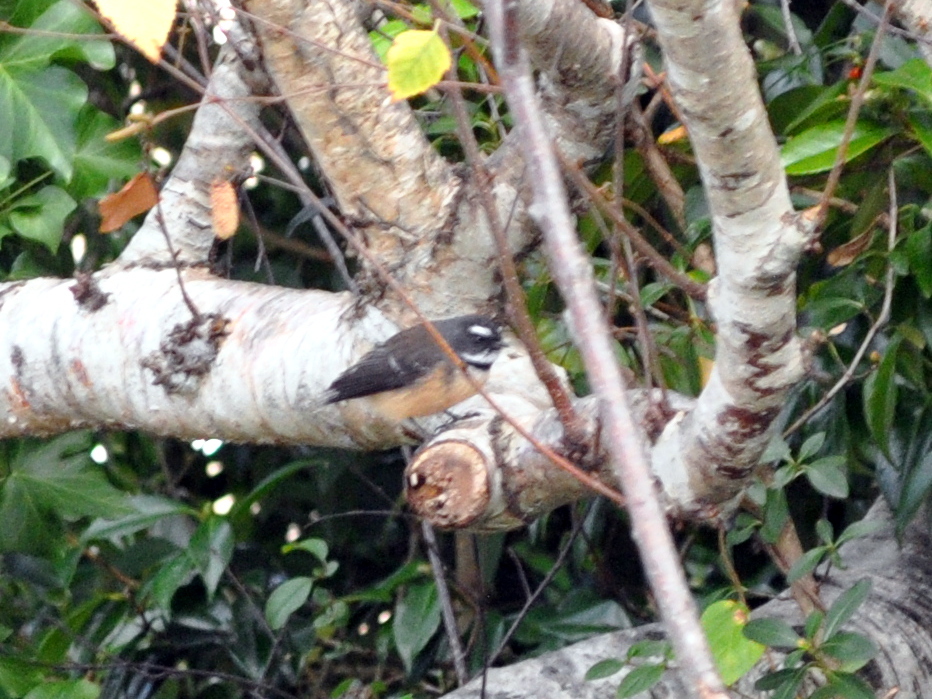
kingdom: Animalia
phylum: Chordata
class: Aves
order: Passeriformes
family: Rhipiduridae
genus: Rhipidura
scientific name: Rhipidura fuliginosa
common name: New zealand fantail
